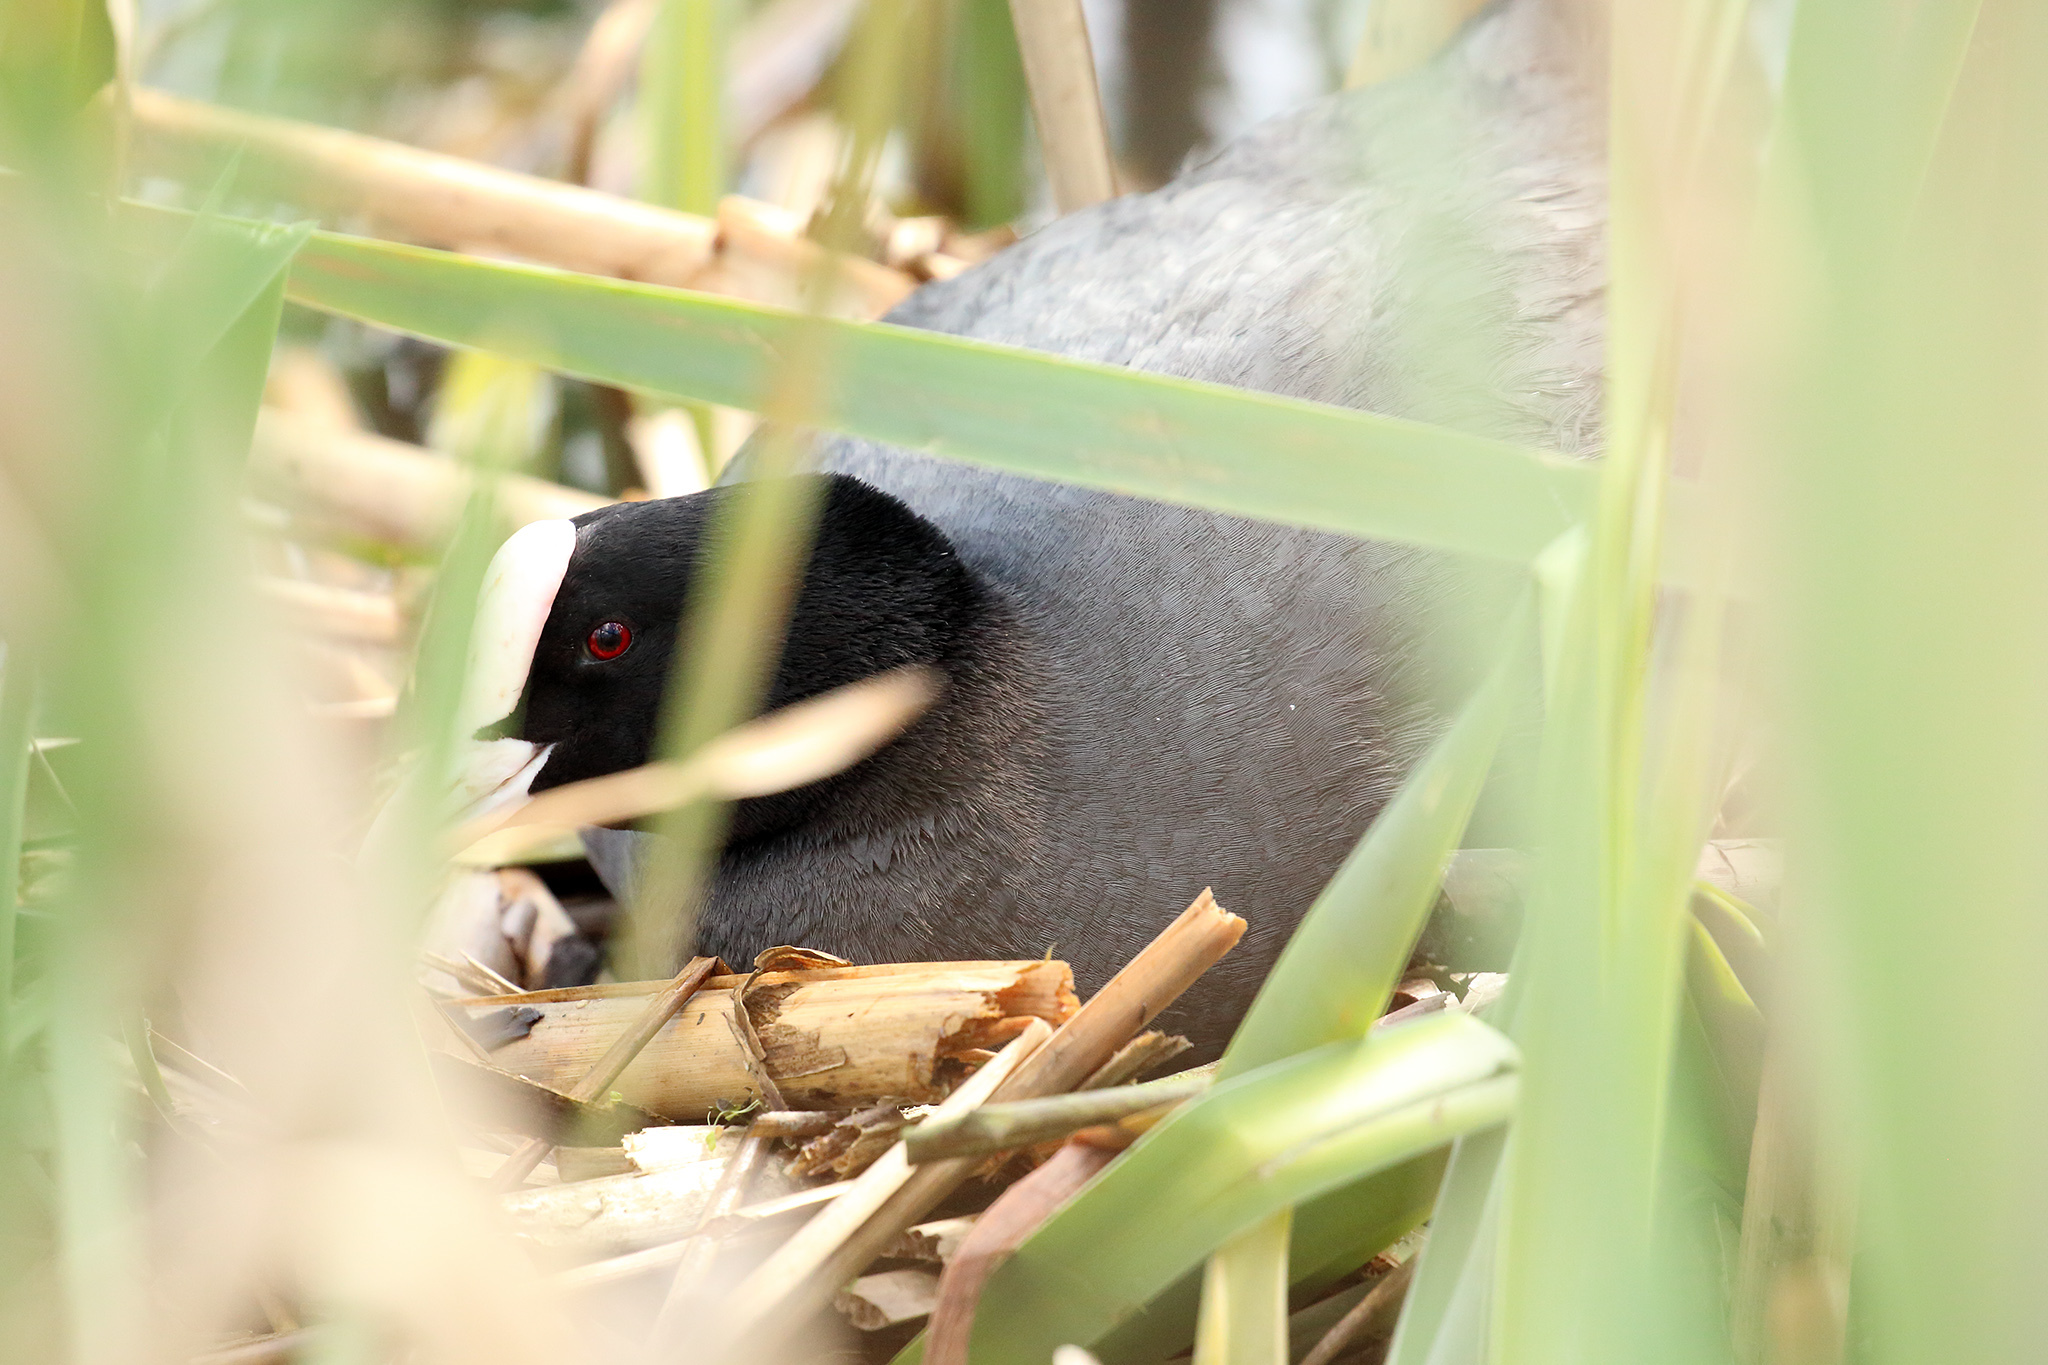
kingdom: Animalia
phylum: Chordata
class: Aves
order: Gruiformes
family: Rallidae
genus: Fulica
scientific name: Fulica atra
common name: Eurasian coot
